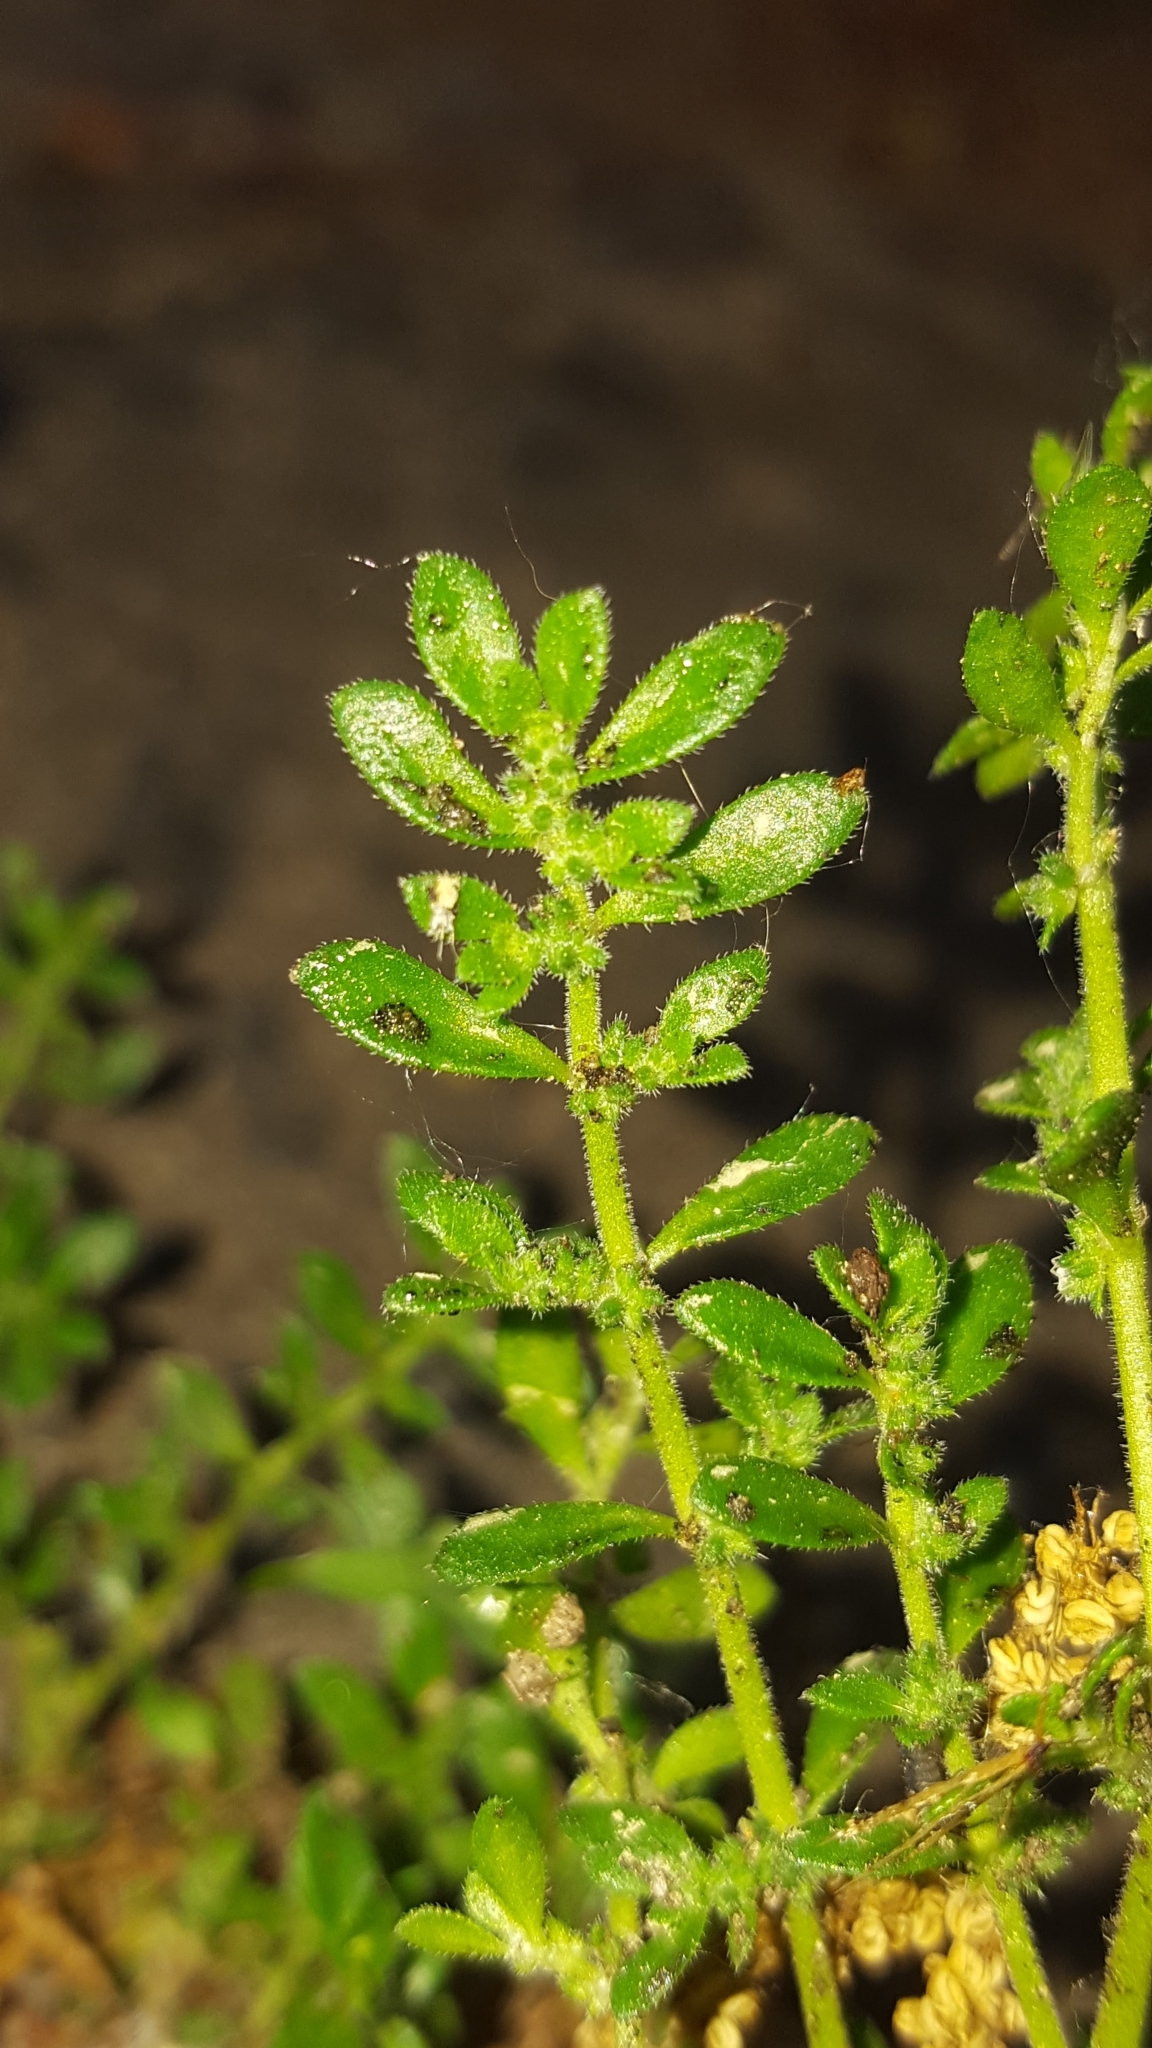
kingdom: Plantae
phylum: Tracheophyta
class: Magnoliopsida
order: Caryophyllales
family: Caryophyllaceae
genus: Herniaria
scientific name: Herniaria hirsuta
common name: Hairy rupturewort
